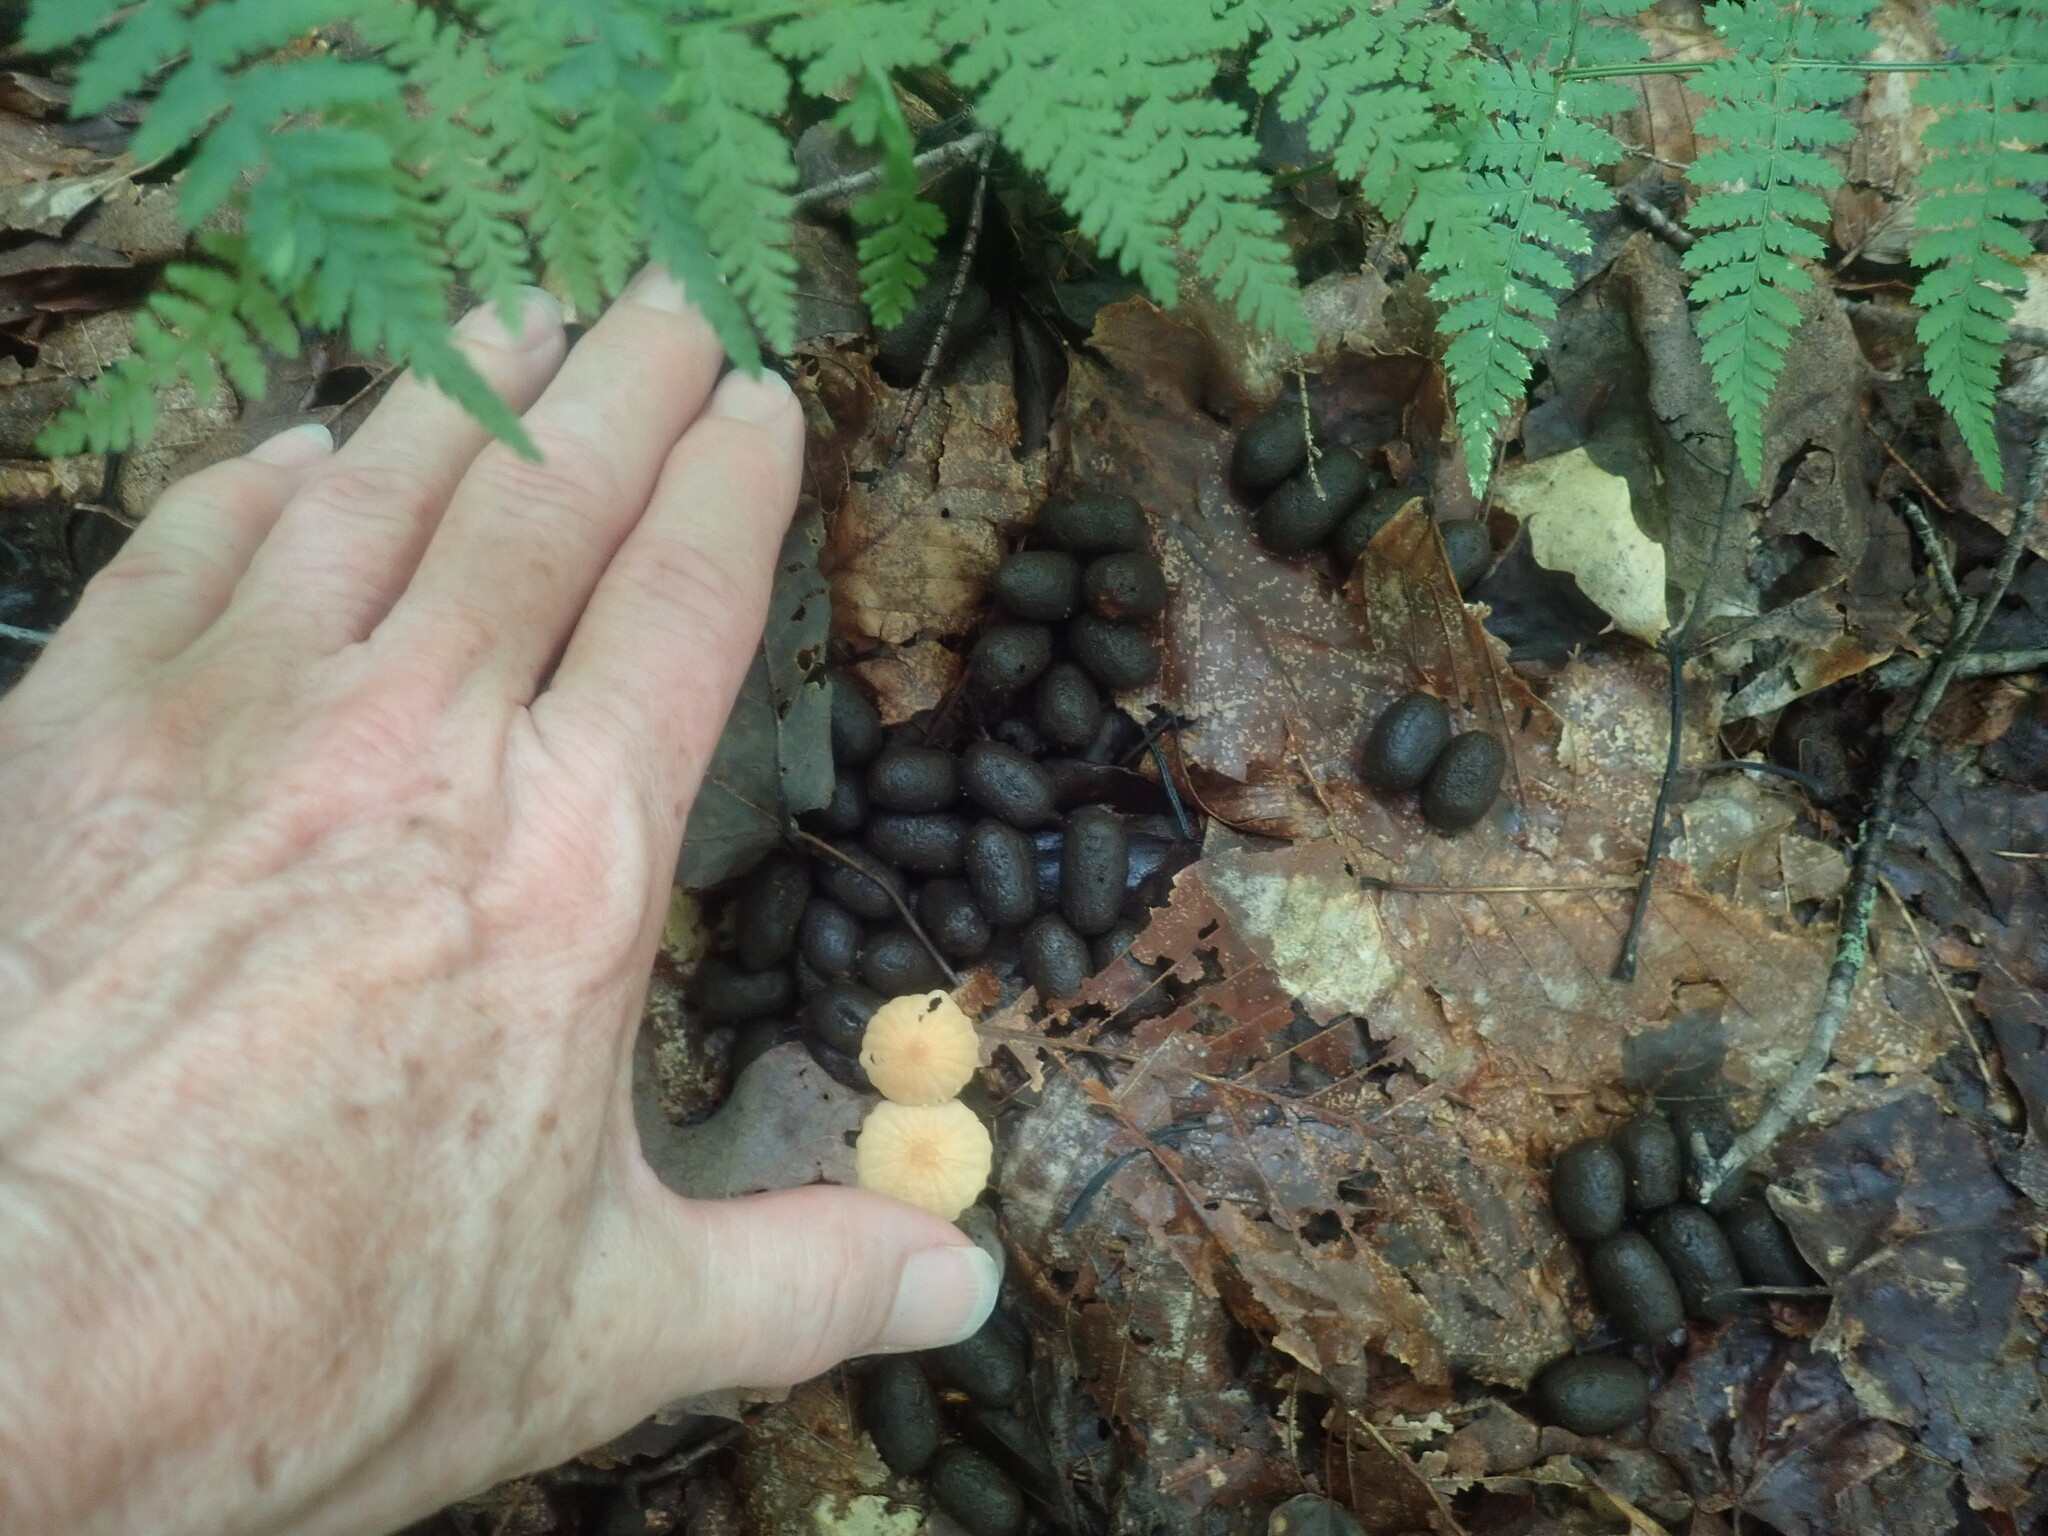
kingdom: Animalia
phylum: Chordata
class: Mammalia
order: Artiodactyla
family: Cervidae
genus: Odocoileus
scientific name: Odocoileus virginianus
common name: White-tailed deer
